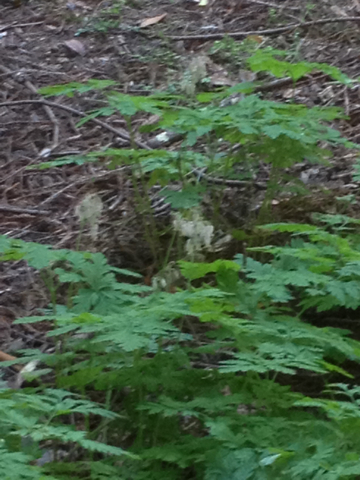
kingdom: Plantae
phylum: Tracheophyta
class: Magnoliopsida
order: Ranunculales
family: Papaveraceae
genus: Dicentra
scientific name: Dicentra formosa
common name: Bleeding-heart
